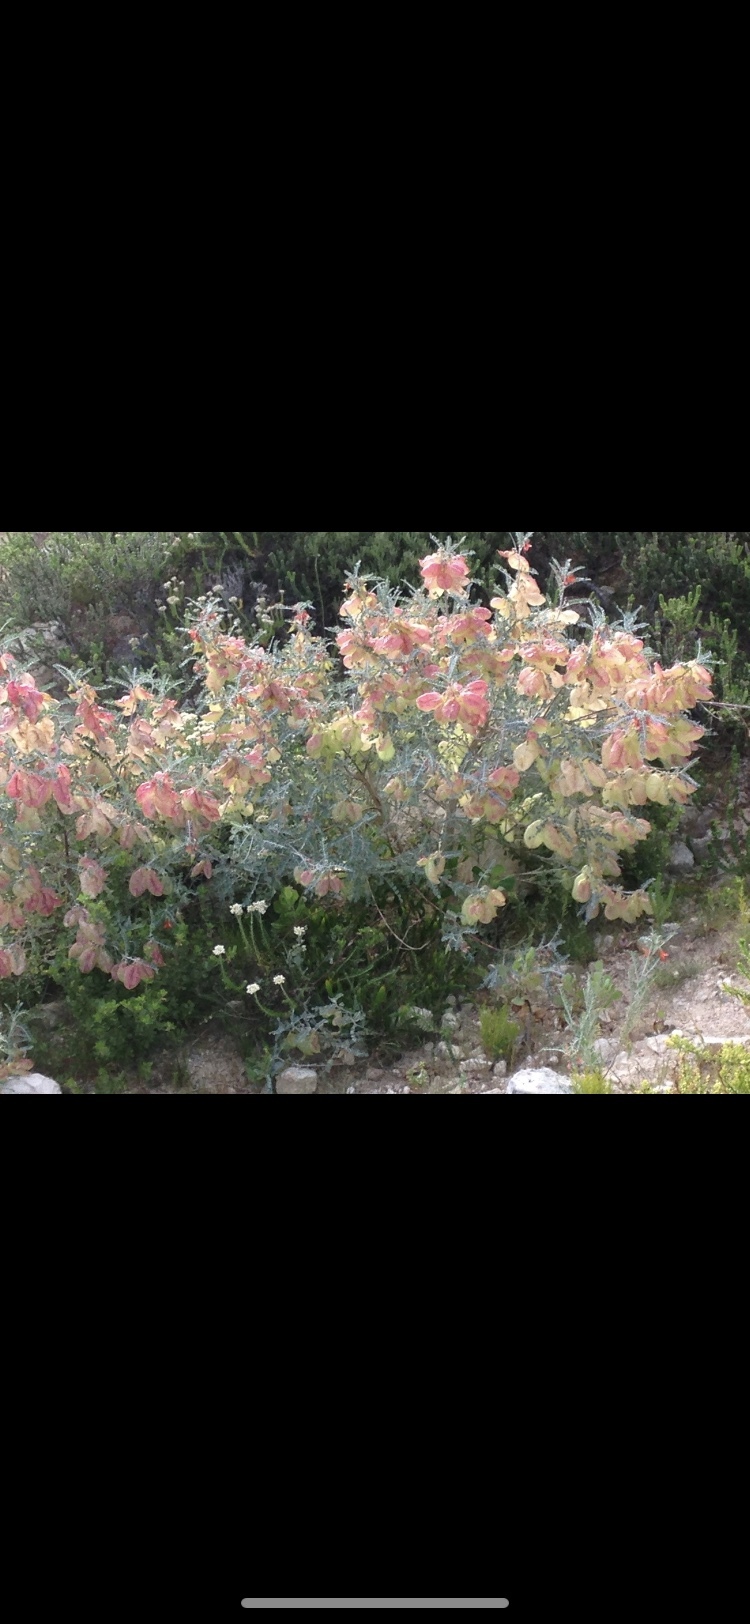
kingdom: Plantae
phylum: Tracheophyta
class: Magnoliopsida
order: Fabales
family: Fabaceae
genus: Lessertia
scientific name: Lessertia canescens
